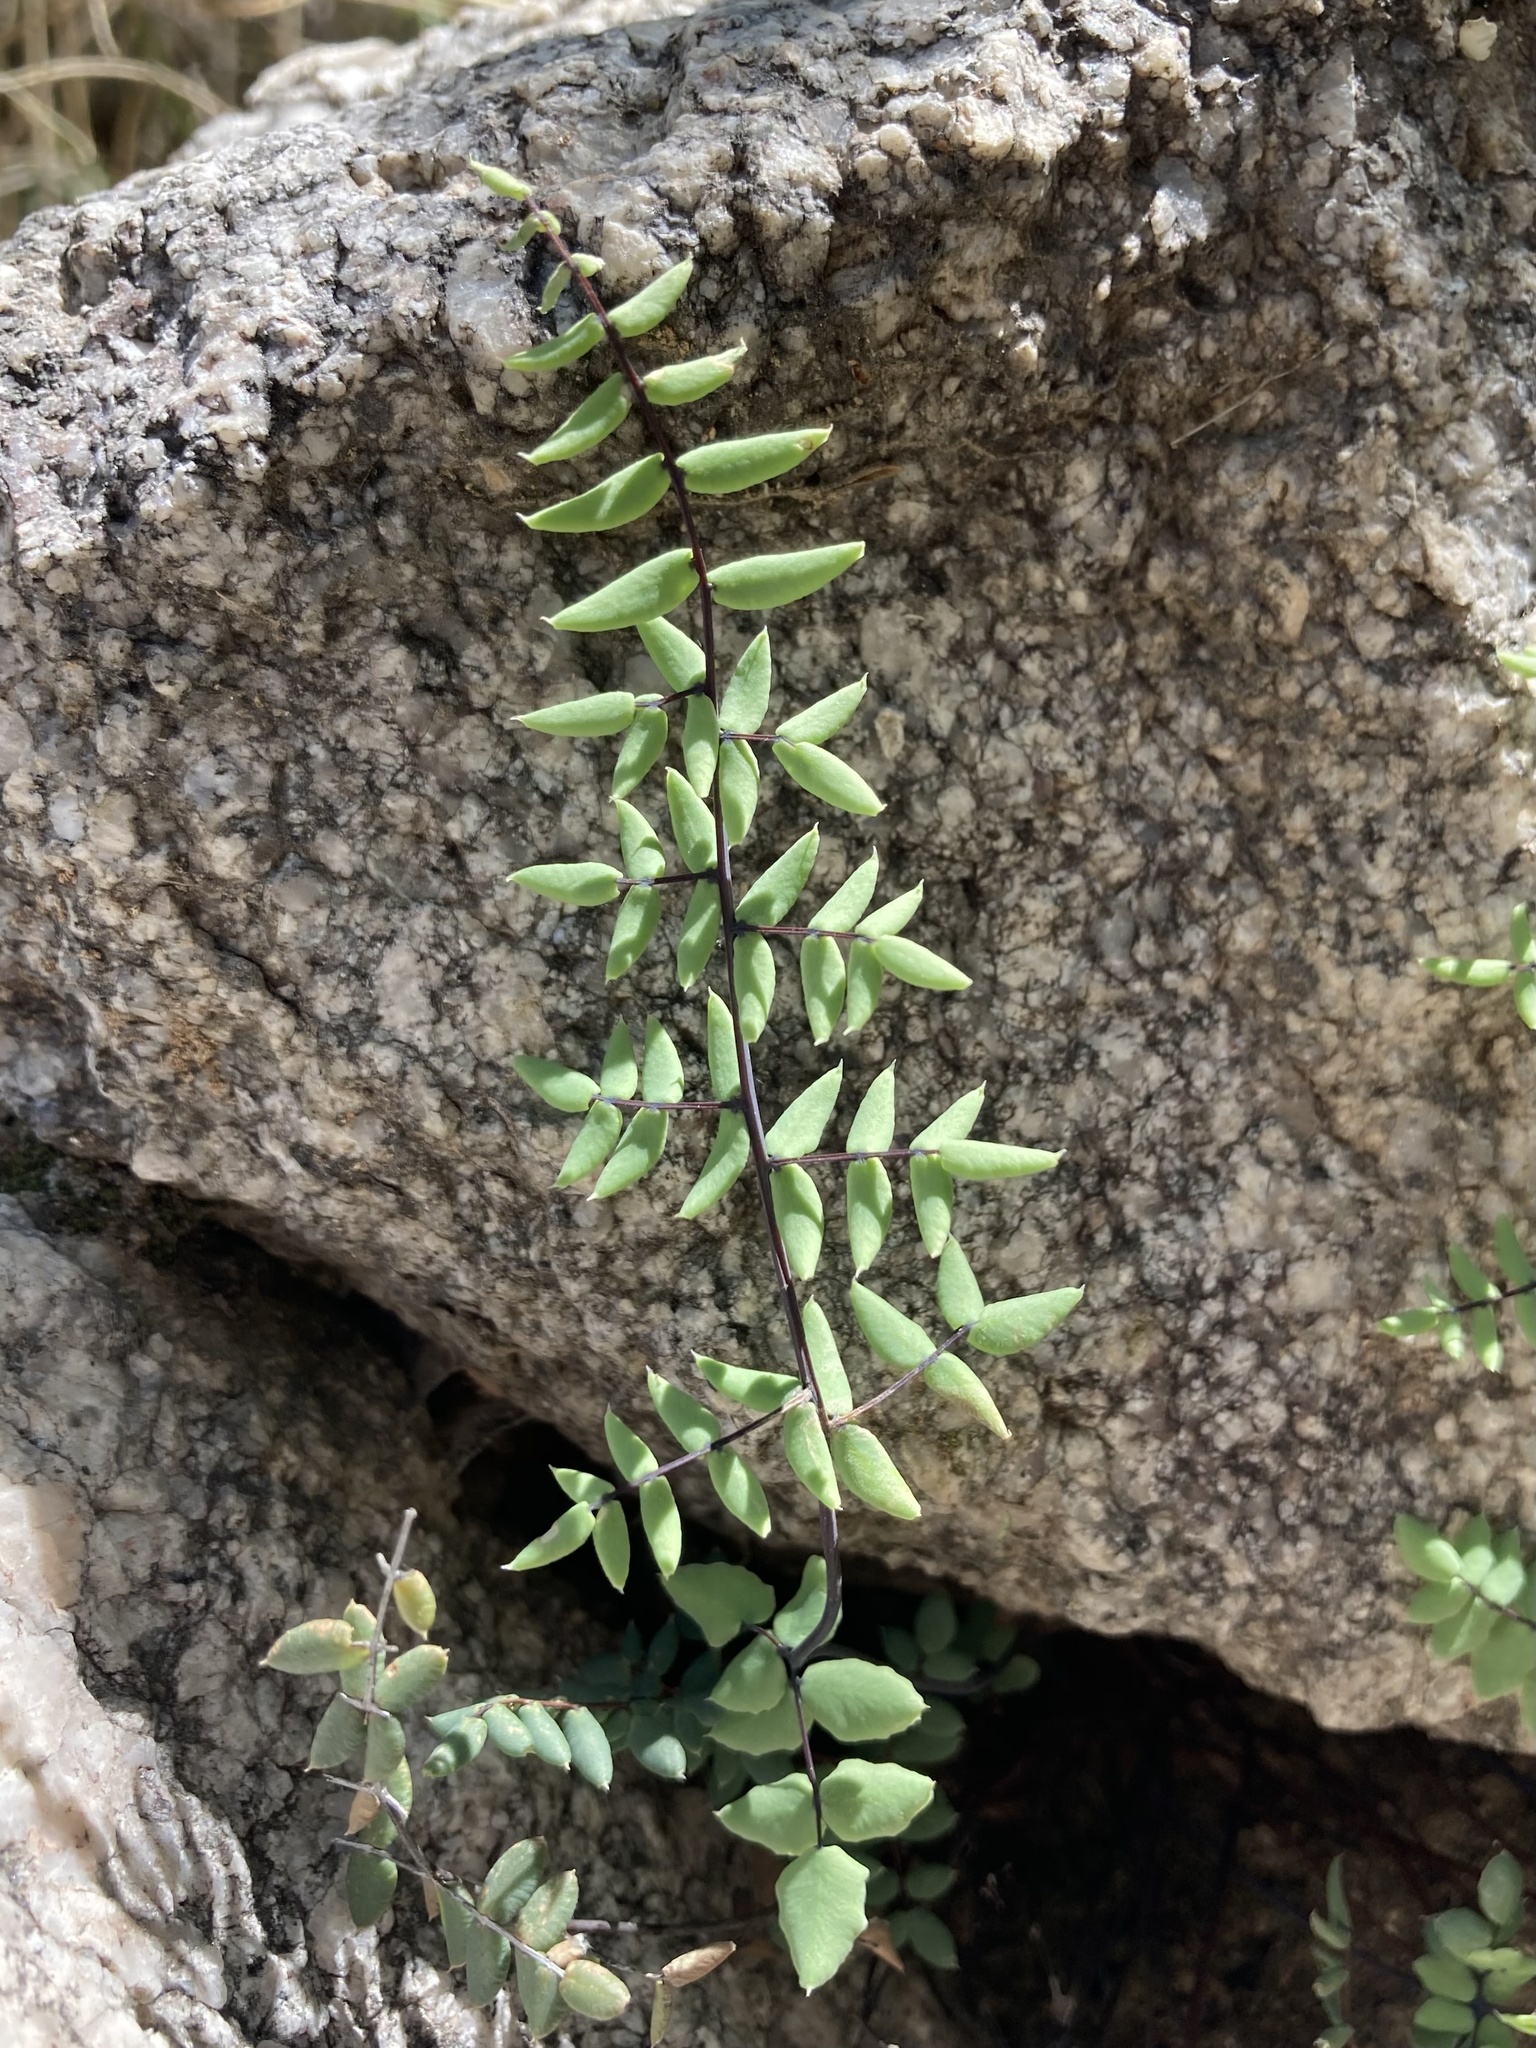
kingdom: Plantae
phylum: Tracheophyta
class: Polypodiopsida
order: Polypodiales
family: Pteridaceae
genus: Pellaea
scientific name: Pellaea truncata
